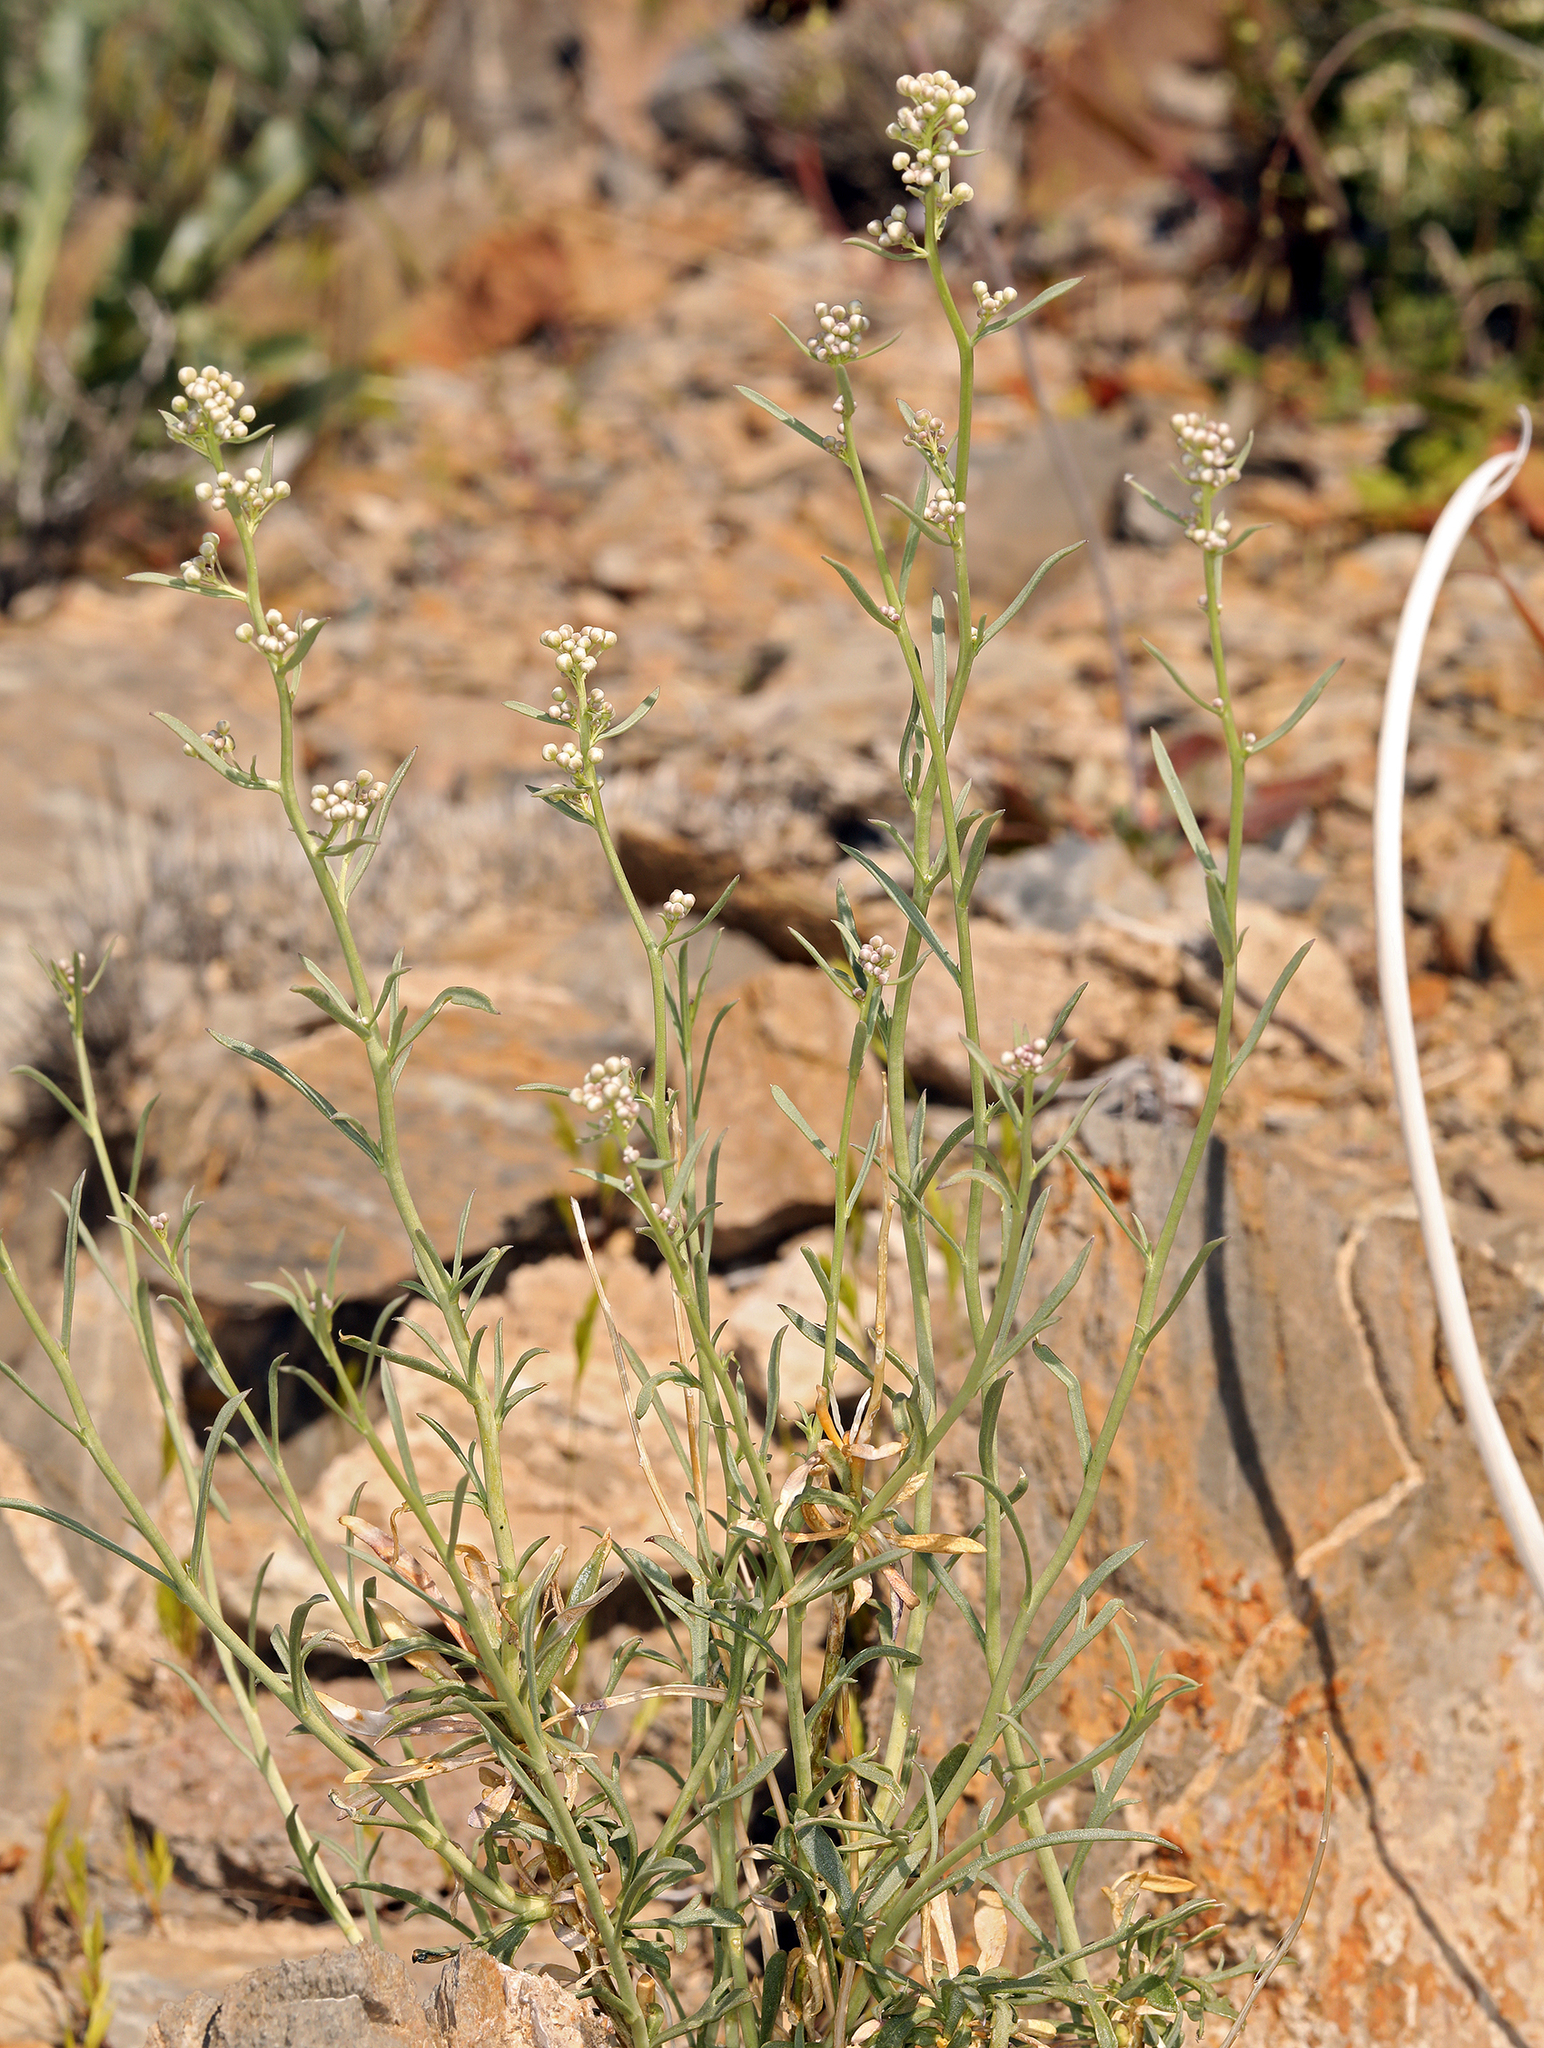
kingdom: Plantae
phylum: Tracheophyta
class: Magnoliopsida
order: Brassicales
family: Brassicaceae
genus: Lepidium
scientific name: Lepidium fremontii
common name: Fremont's pepperwort
